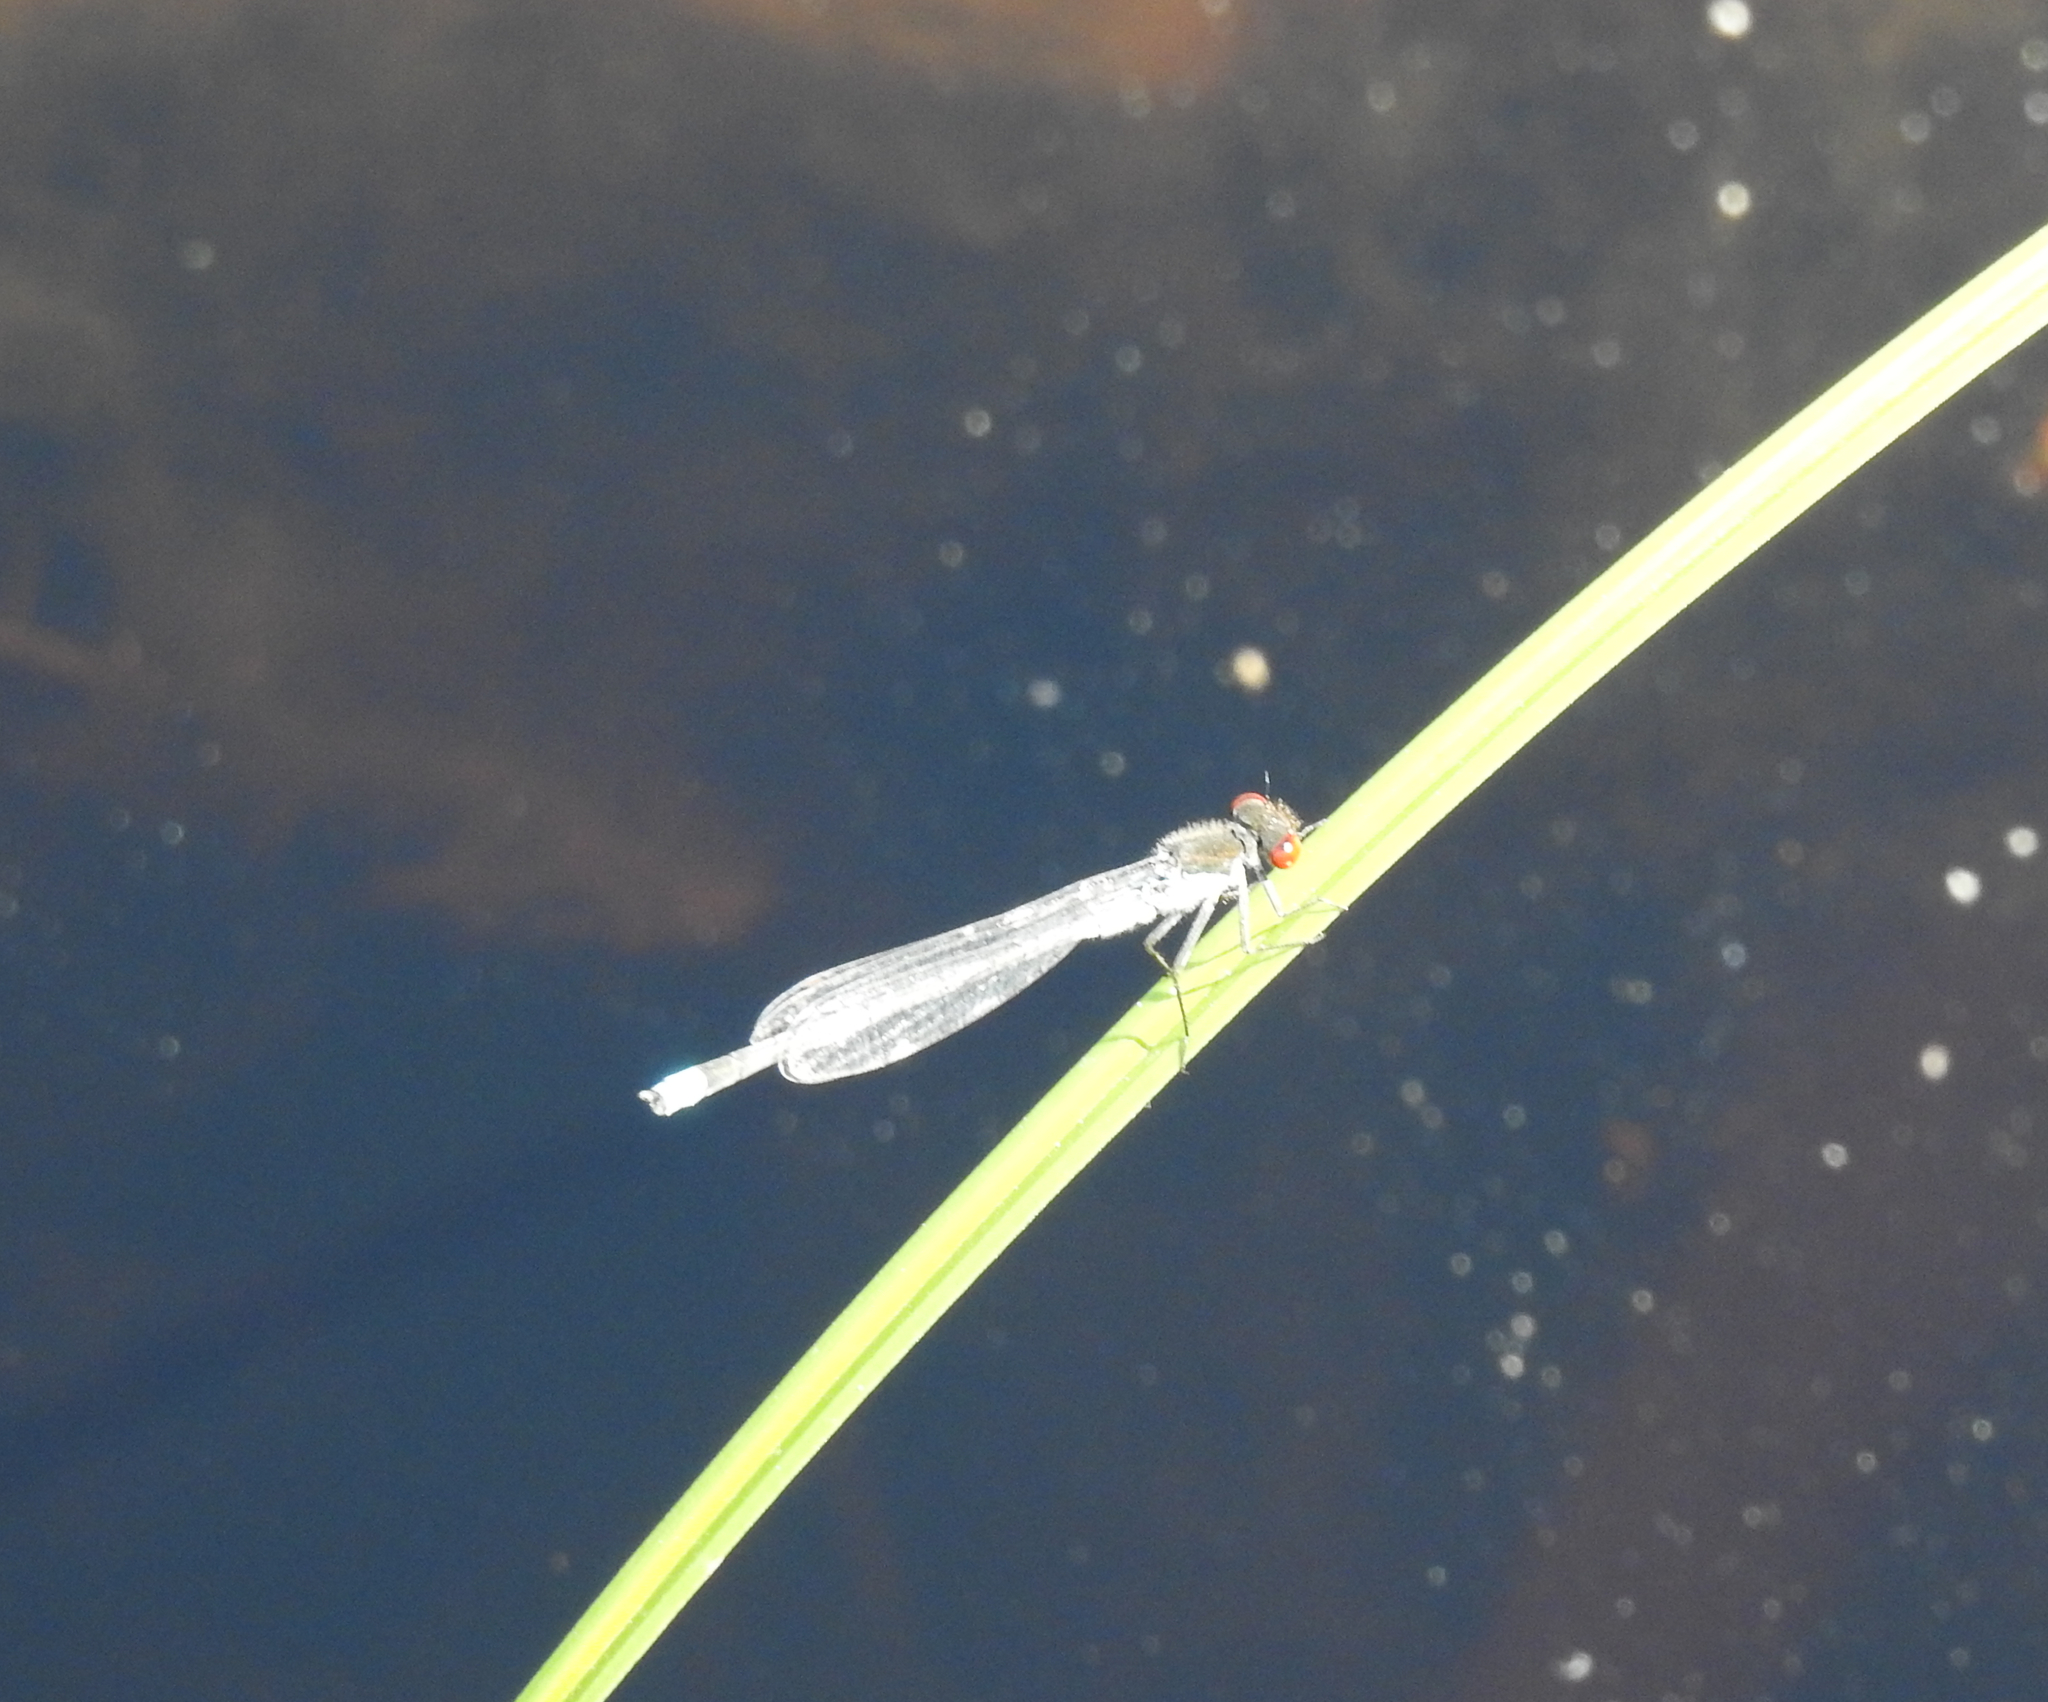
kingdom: Animalia
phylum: Arthropoda
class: Insecta
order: Odonata
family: Coenagrionidae
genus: Erythromma
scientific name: Erythromma najas
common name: Red-eyed damselfly
